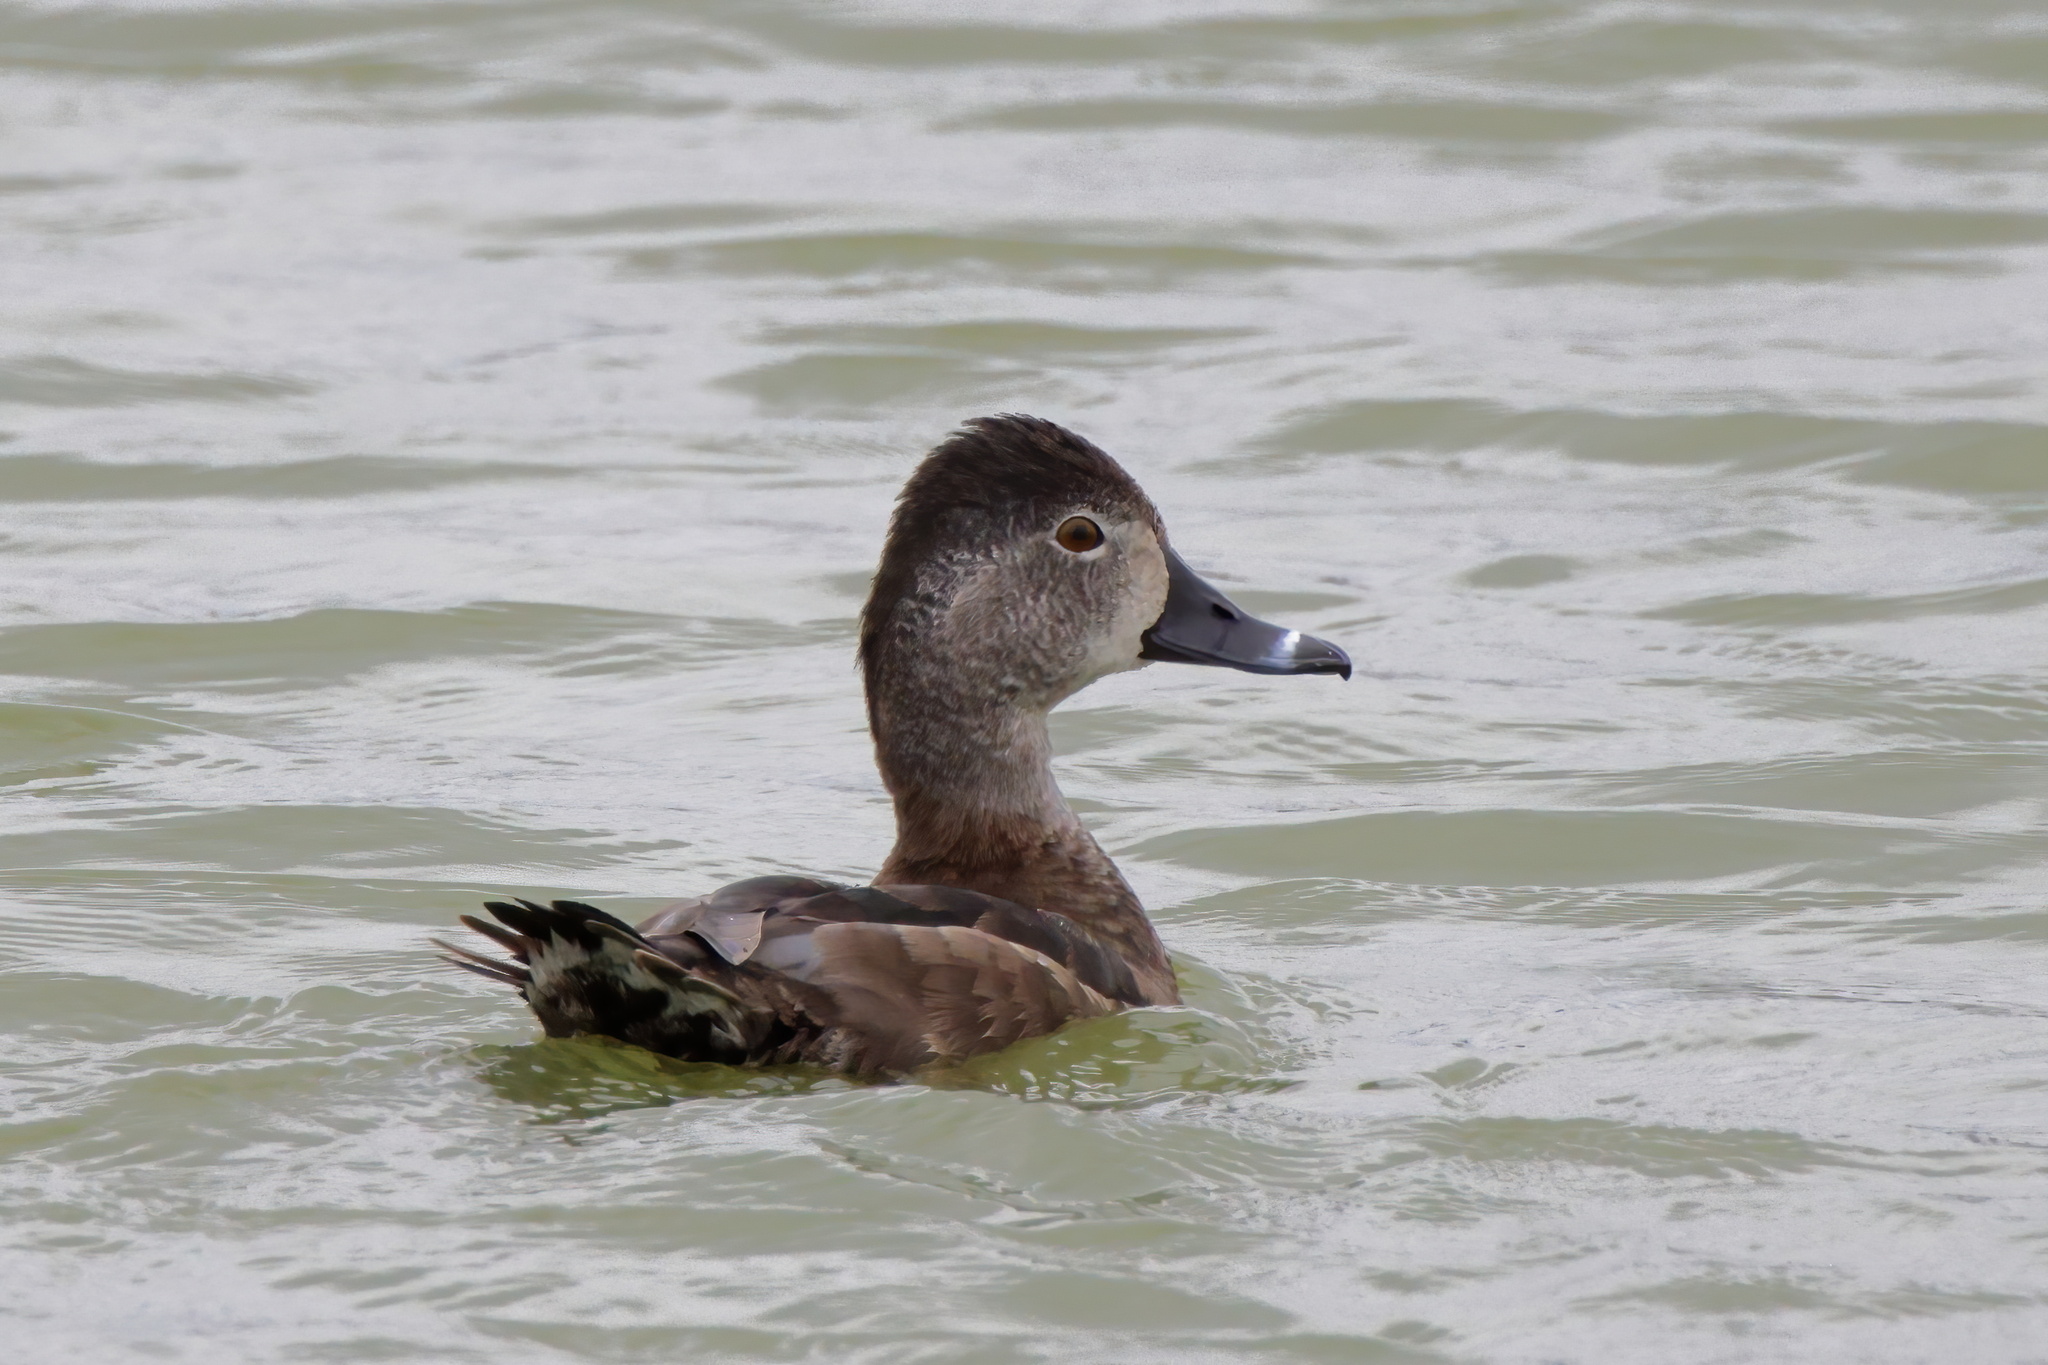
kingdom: Animalia
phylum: Chordata
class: Aves
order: Anseriformes
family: Anatidae
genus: Aythya
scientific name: Aythya collaris
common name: Ring-necked duck
